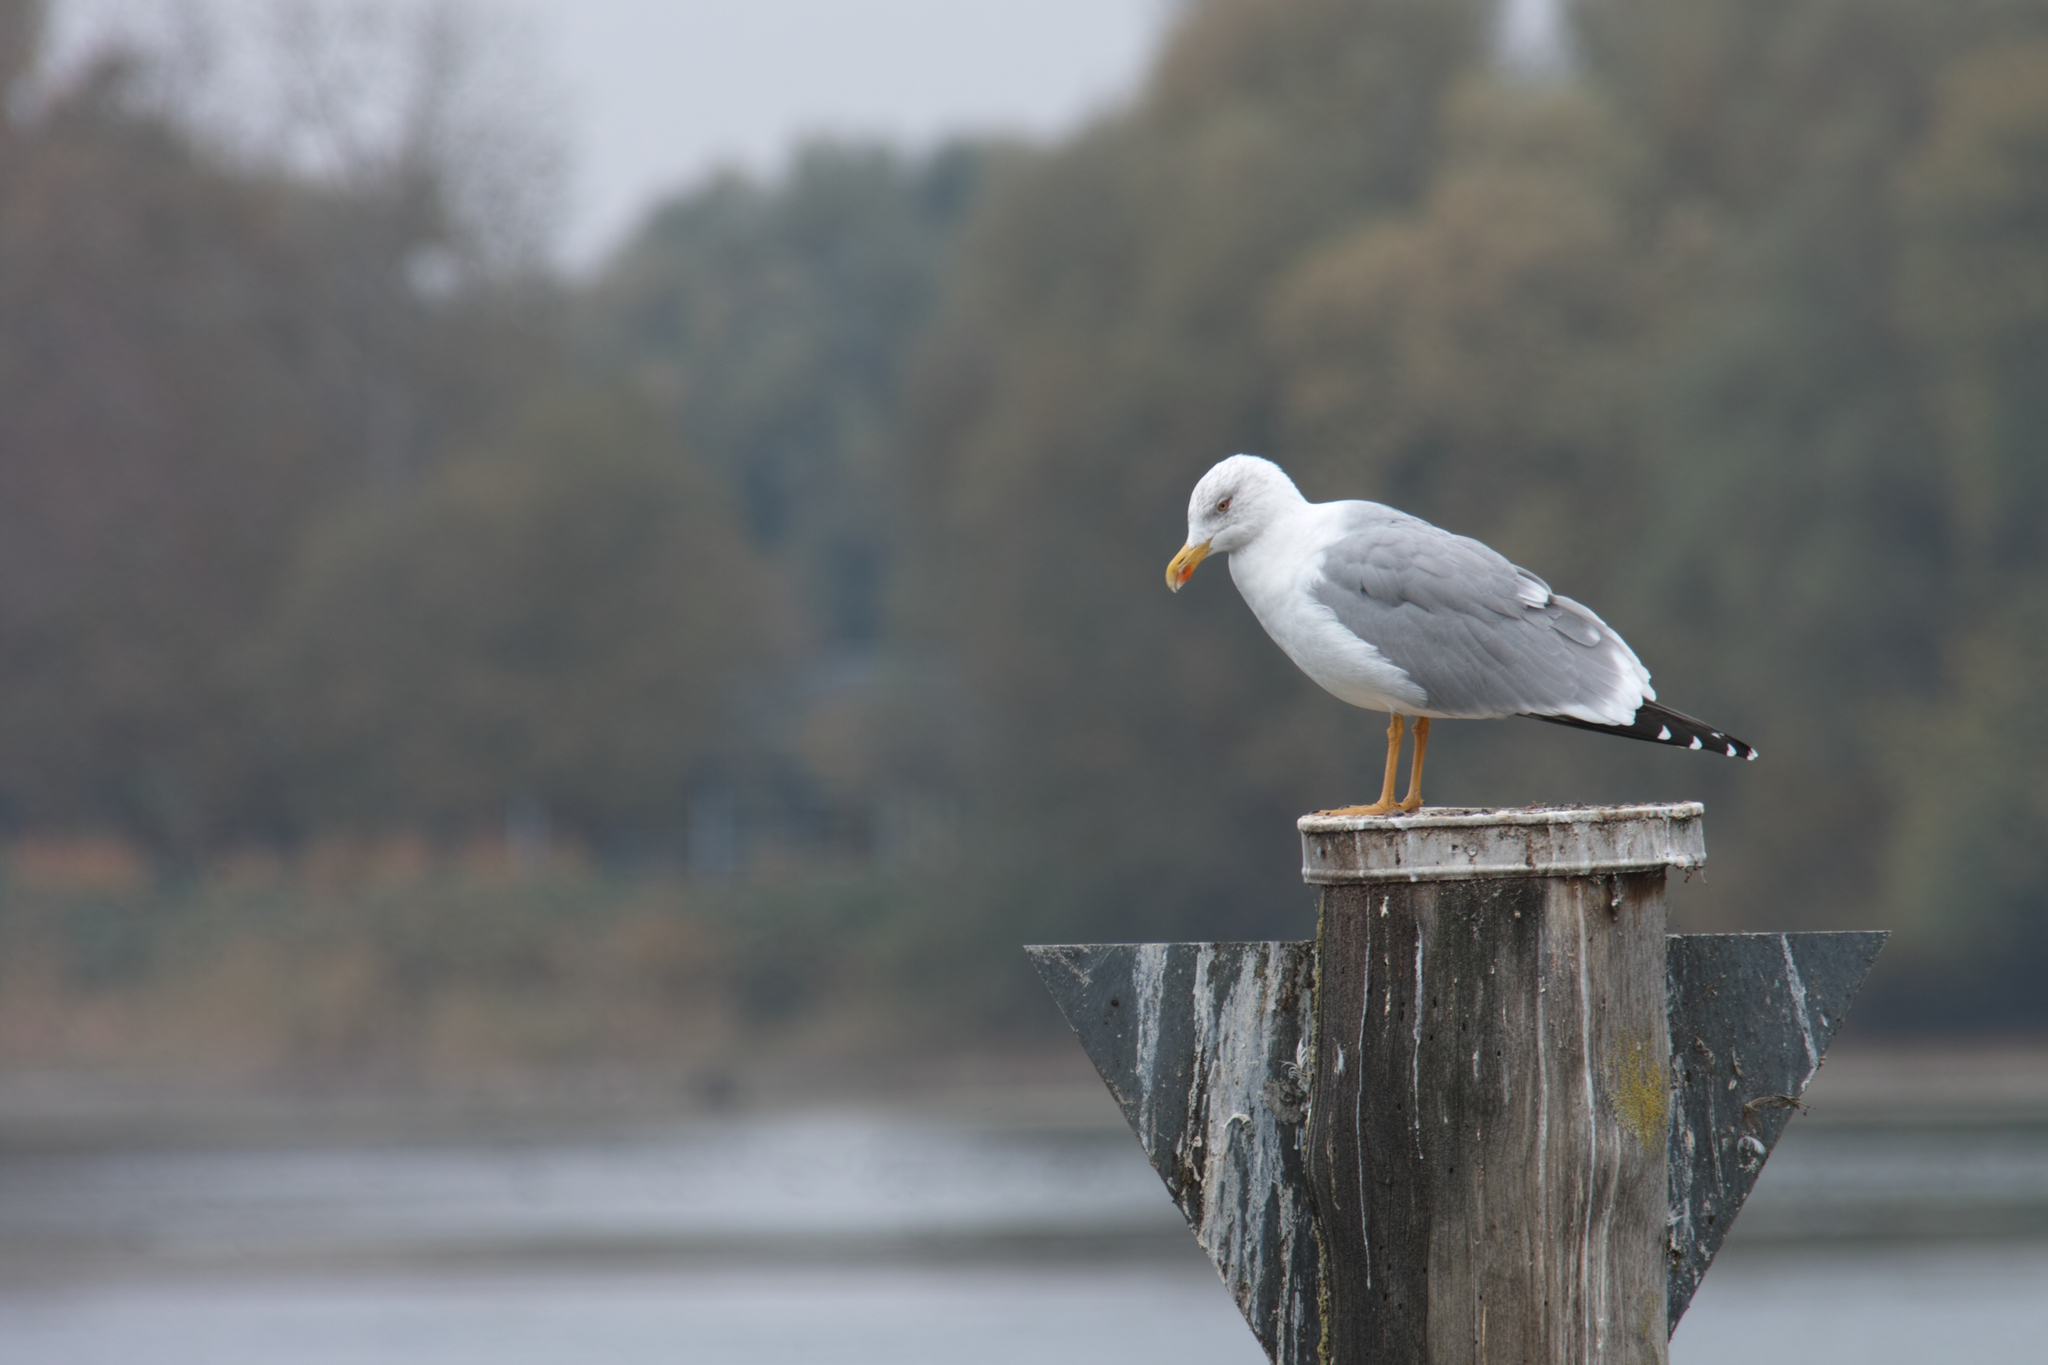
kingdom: Animalia
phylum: Chordata
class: Aves
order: Charadriiformes
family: Laridae
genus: Larus
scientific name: Larus michahellis
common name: Yellow-legged gull
